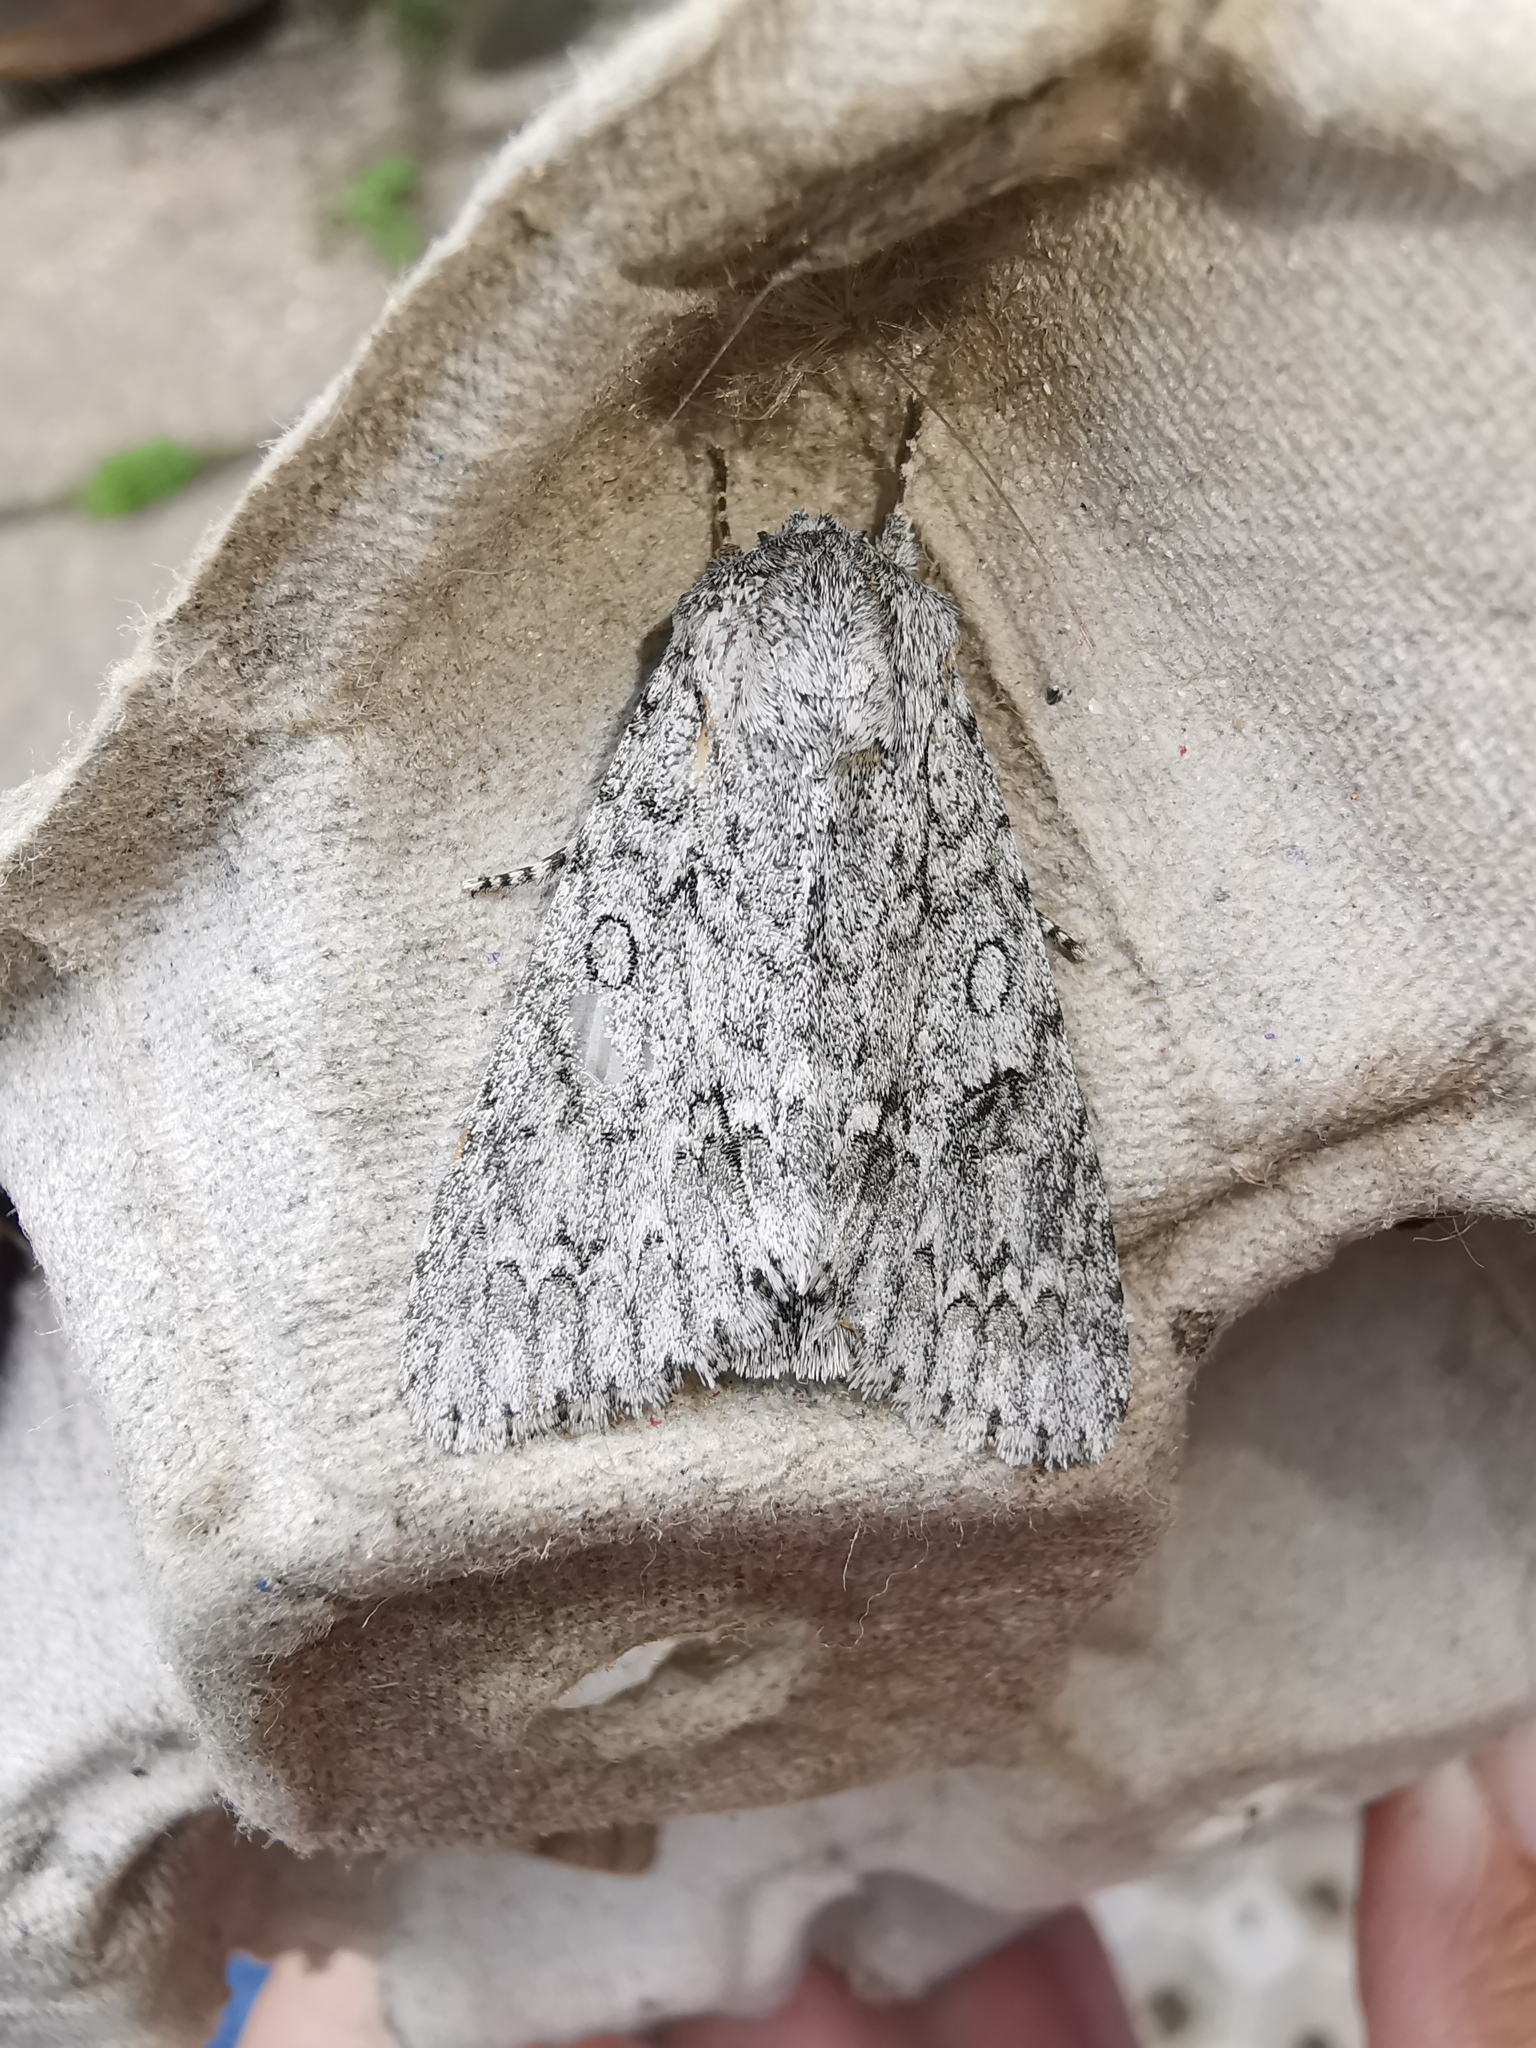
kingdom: Animalia
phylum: Arthropoda
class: Insecta
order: Lepidoptera
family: Noctuidae
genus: Acronicta
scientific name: Acronicta aceris
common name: Sycamore
